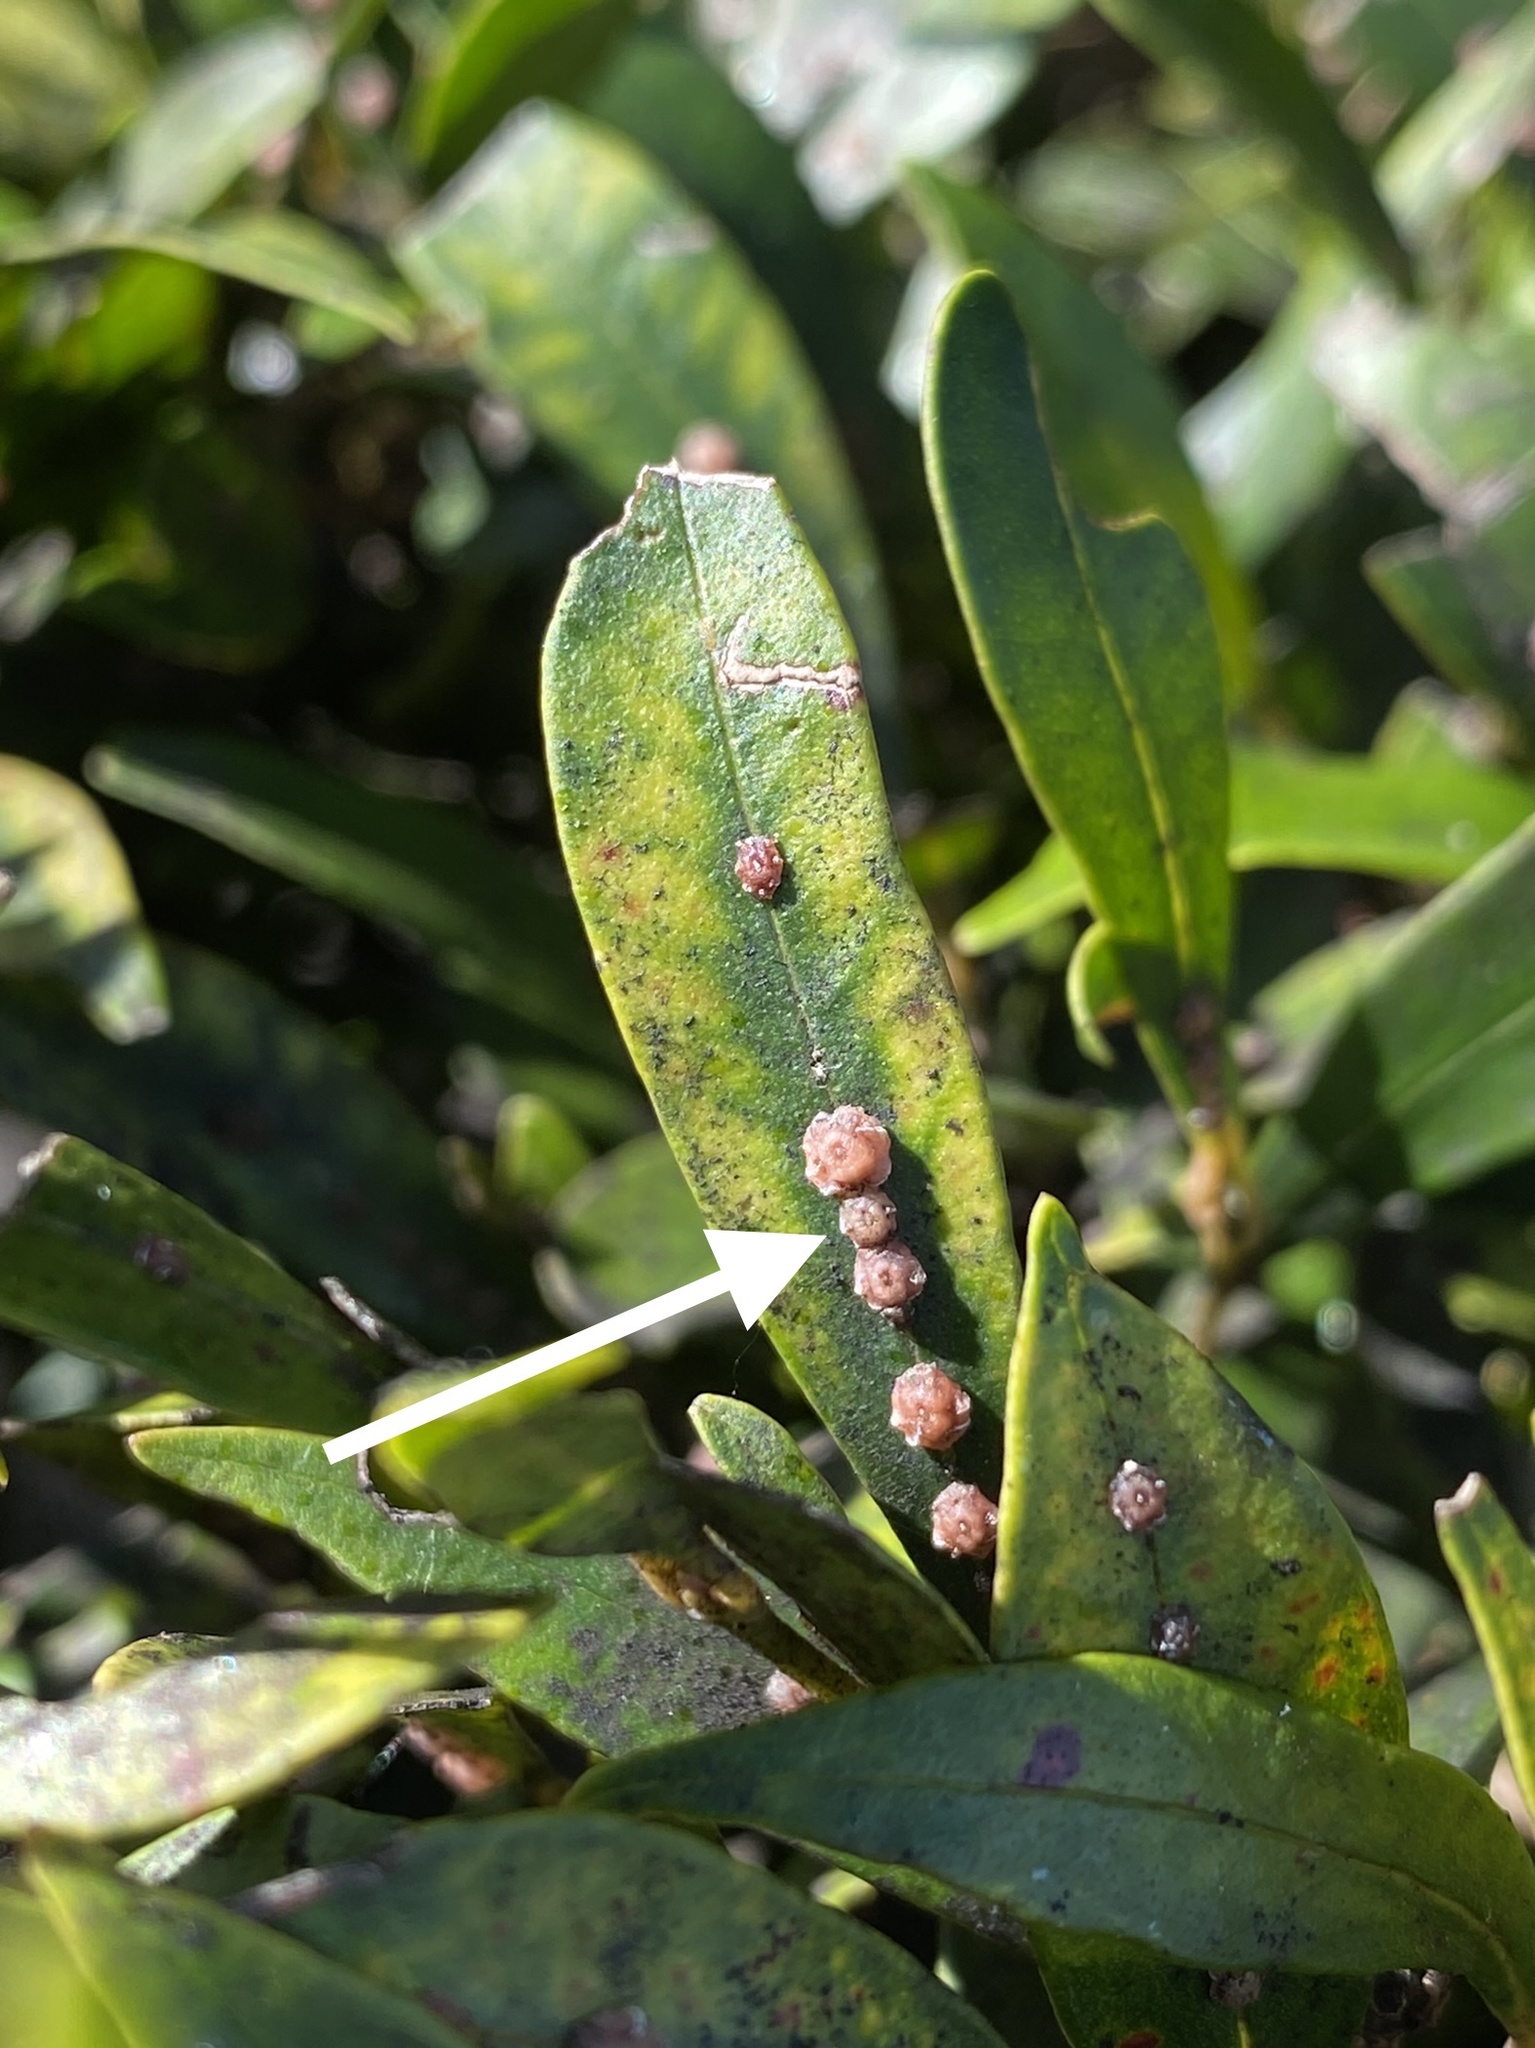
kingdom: Animalia
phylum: Arthropoda
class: Insecta
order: Hemiptera
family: Coccidae
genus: Ceroplastes
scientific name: Ceroplastes rubens
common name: Pink wax scale
